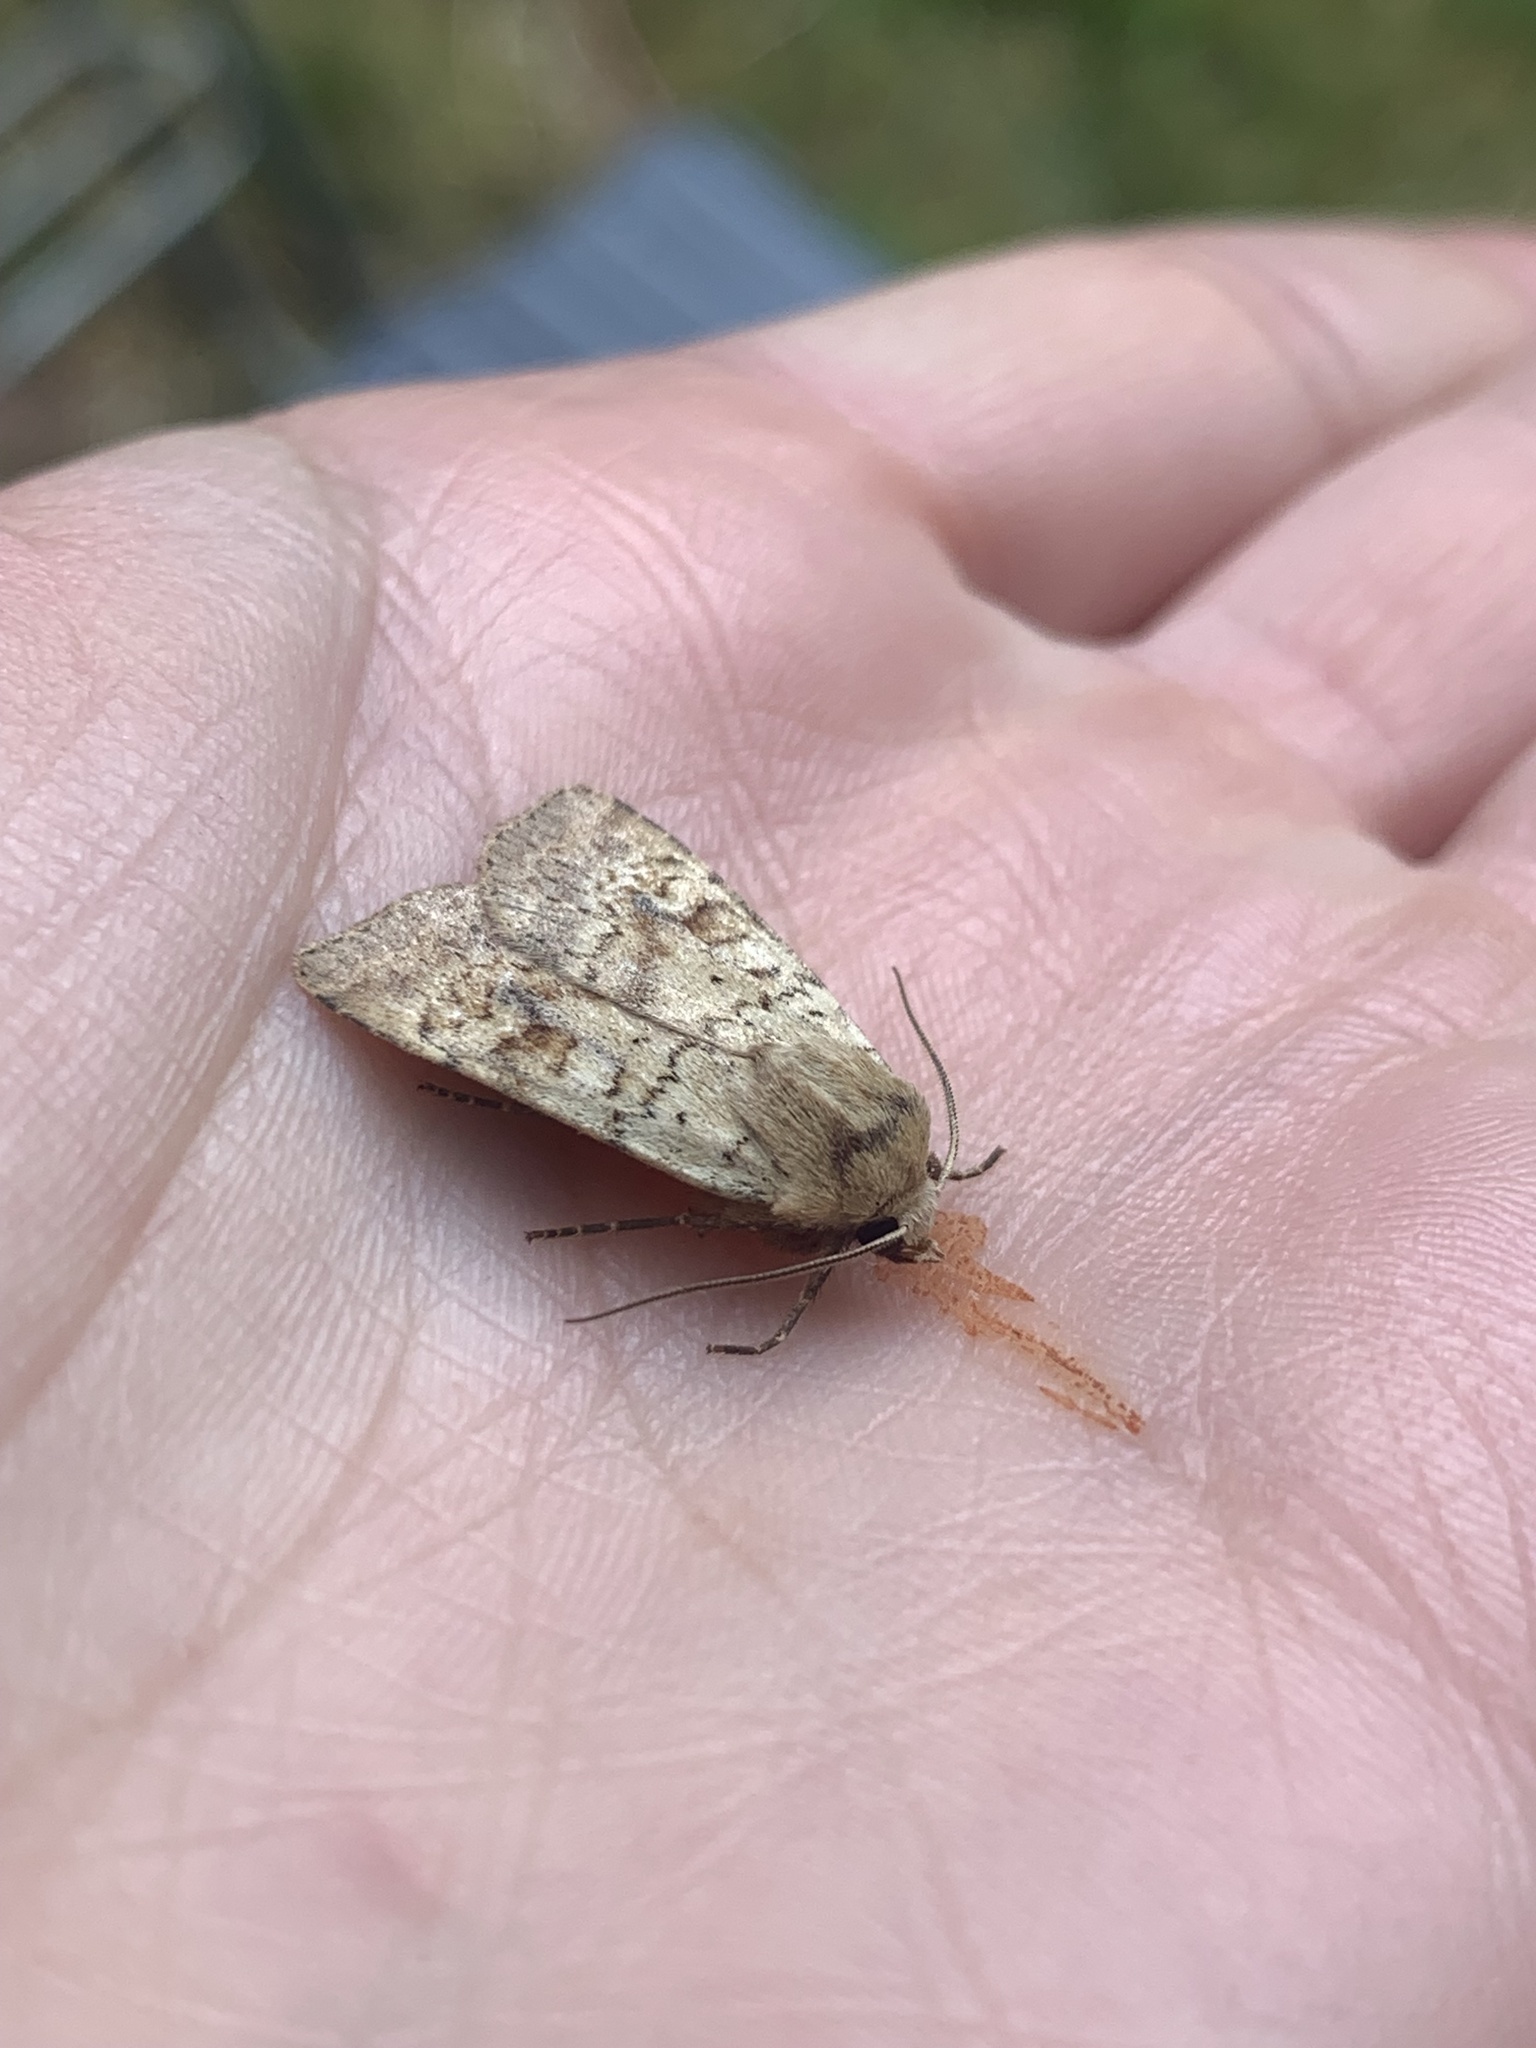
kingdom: Animalia
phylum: Arthropoda
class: Insecta
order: Lepidoptera
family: Noctuidae
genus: Diarsia
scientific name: Diarsia mendica
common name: Ingrailed clay
